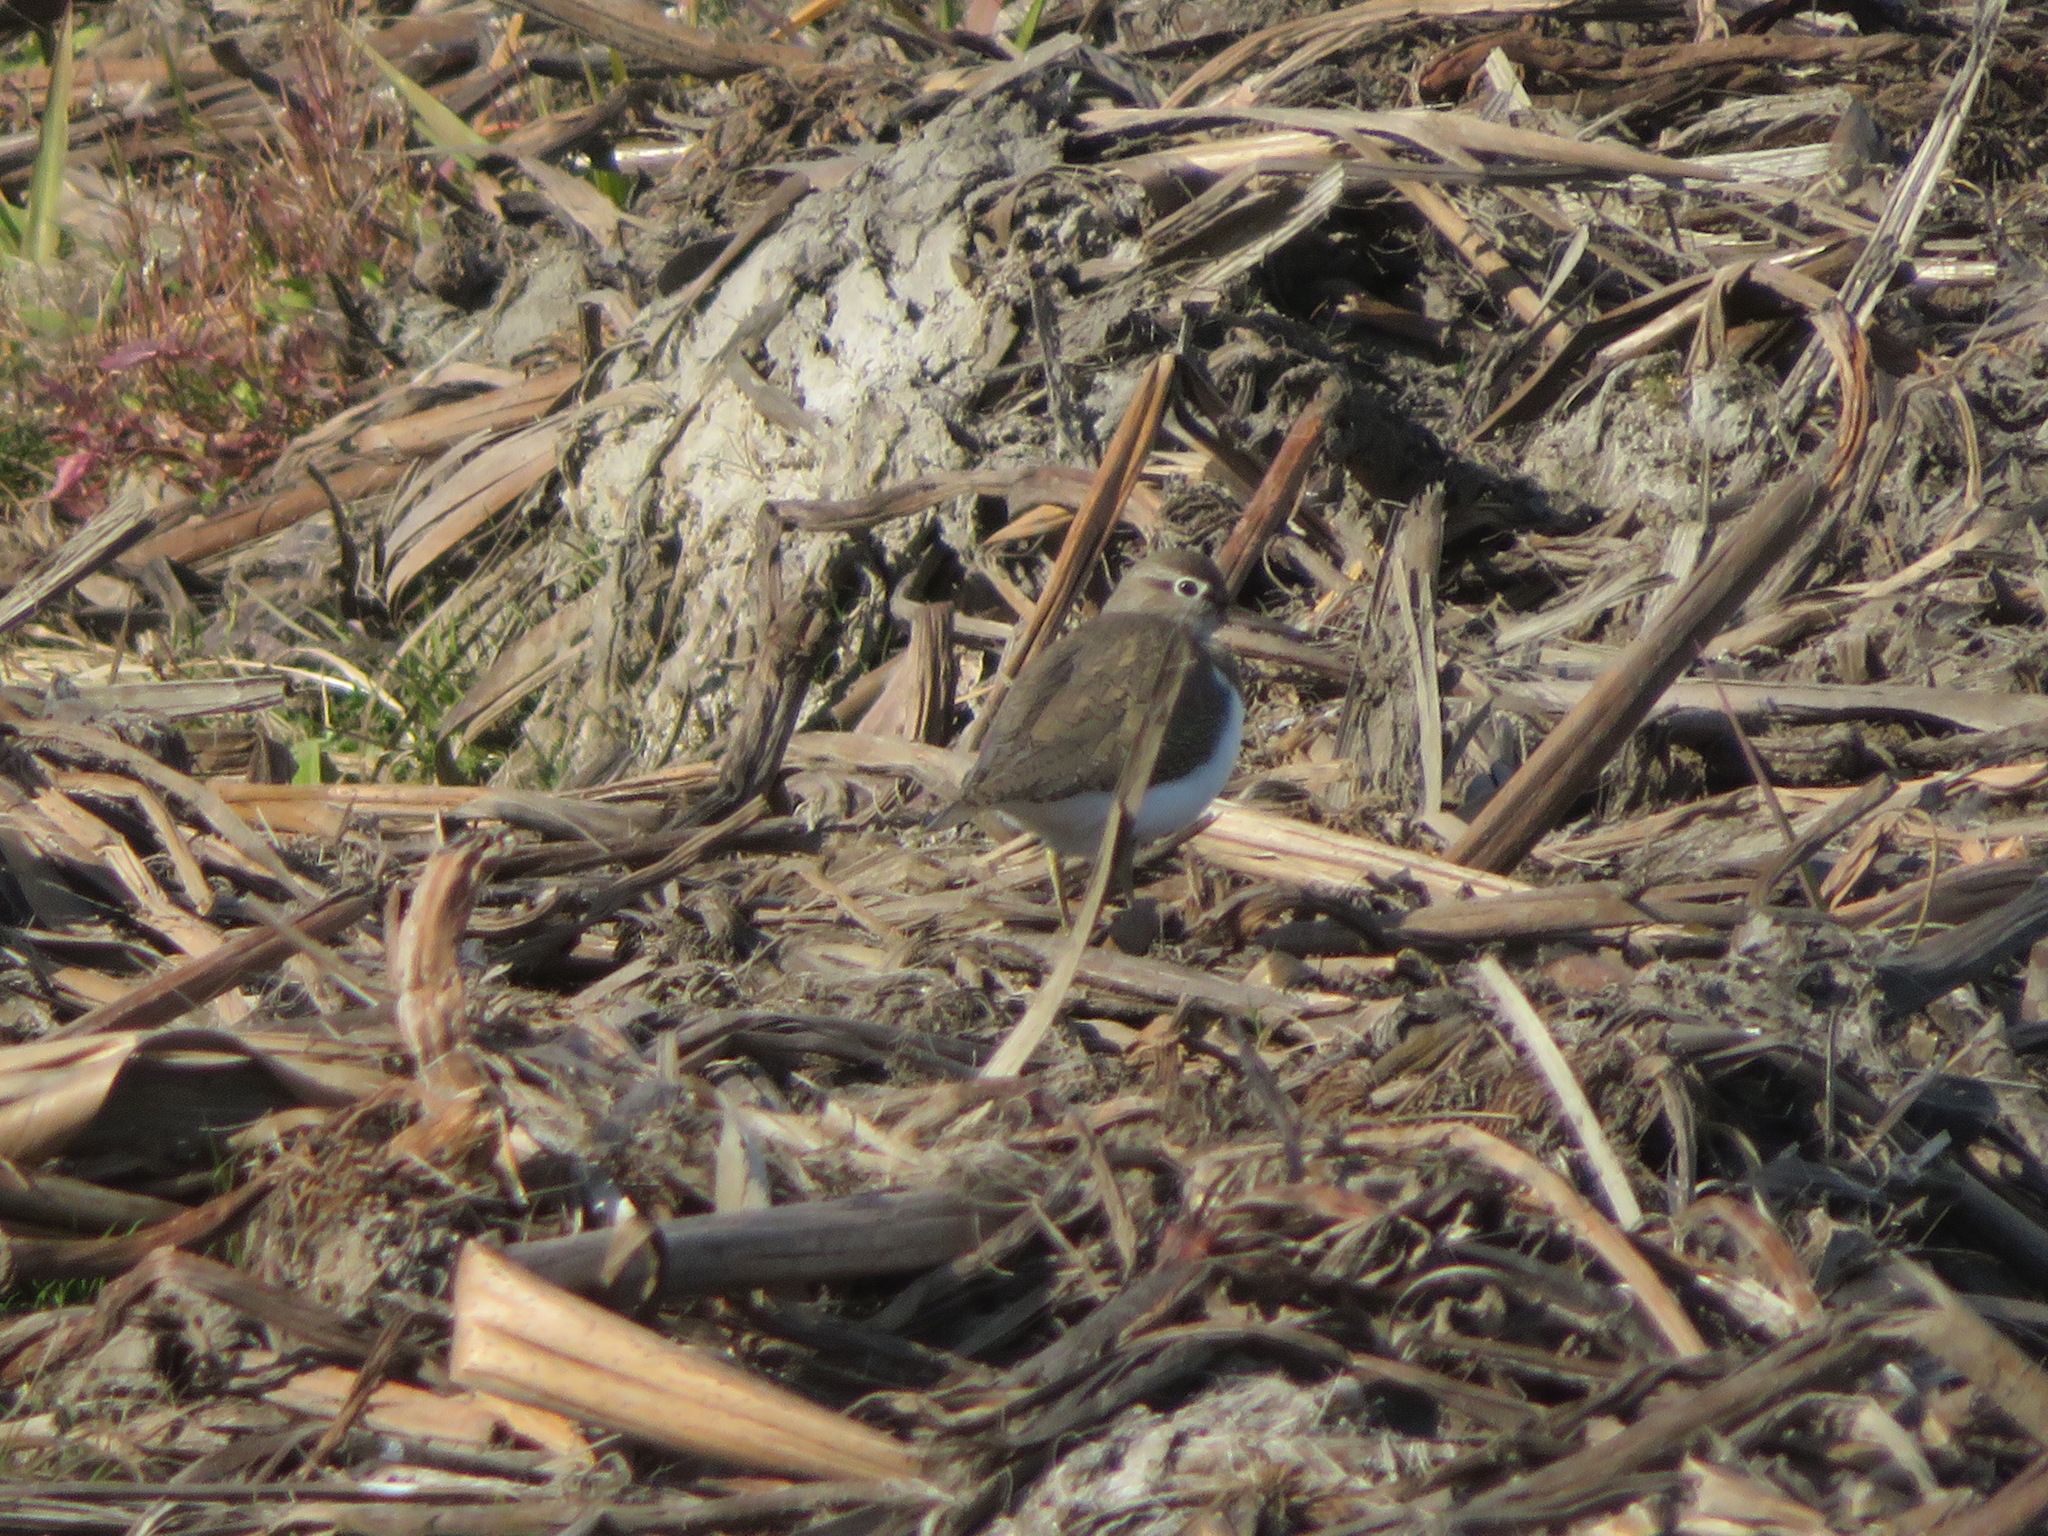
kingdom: Animalia
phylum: Chordata
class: Aves
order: Charadriiformes
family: Scolopacidae
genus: Actitis
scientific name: Actitis hypoleucos
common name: Common sandpiper
